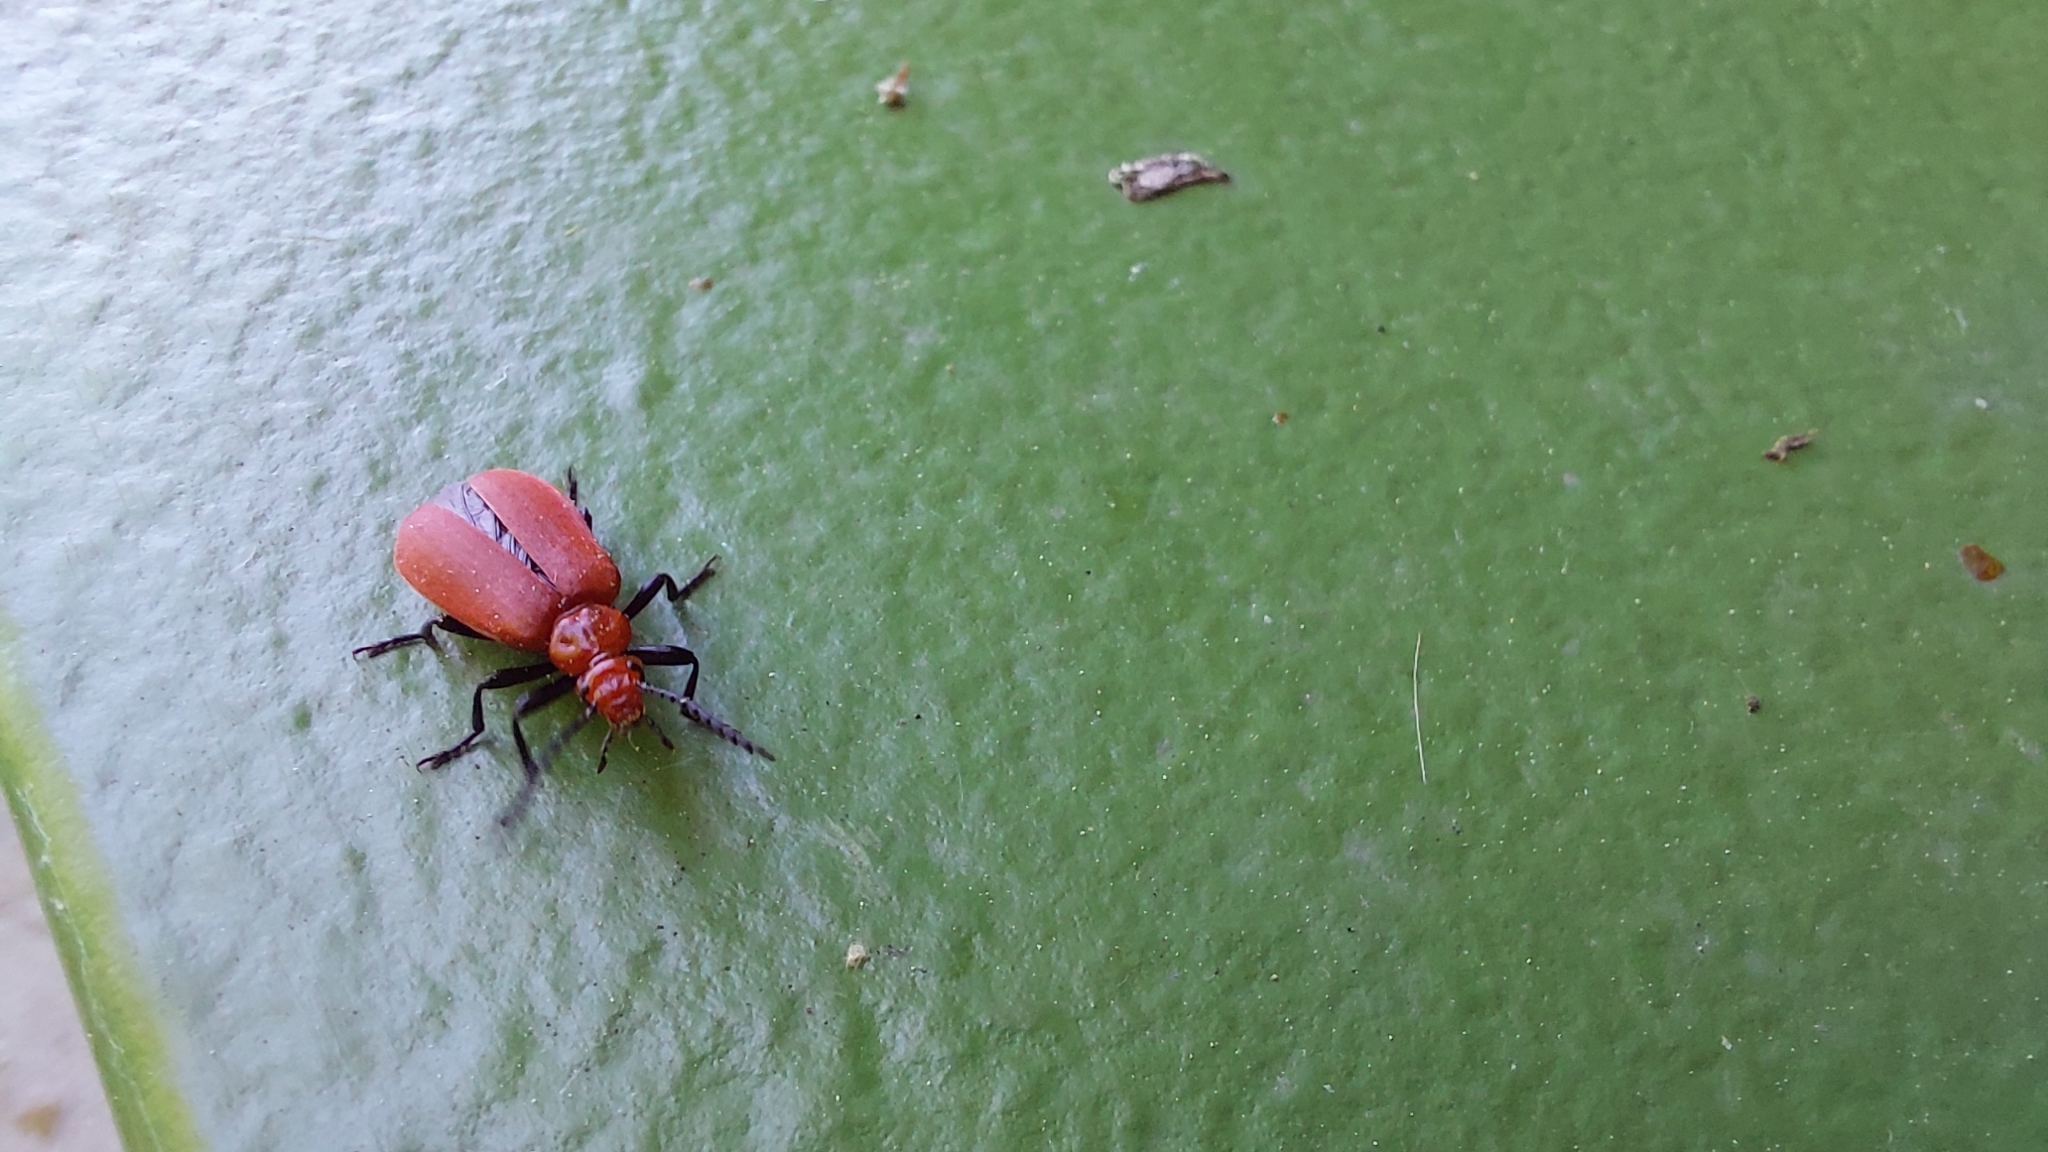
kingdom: Animalia
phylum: Arthropoda
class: Insecta
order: Coleoptera
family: Pyrochroidae
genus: Pyrochroa
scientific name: Pyrochroa serraticornis
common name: Red-headed cardinal beetle
